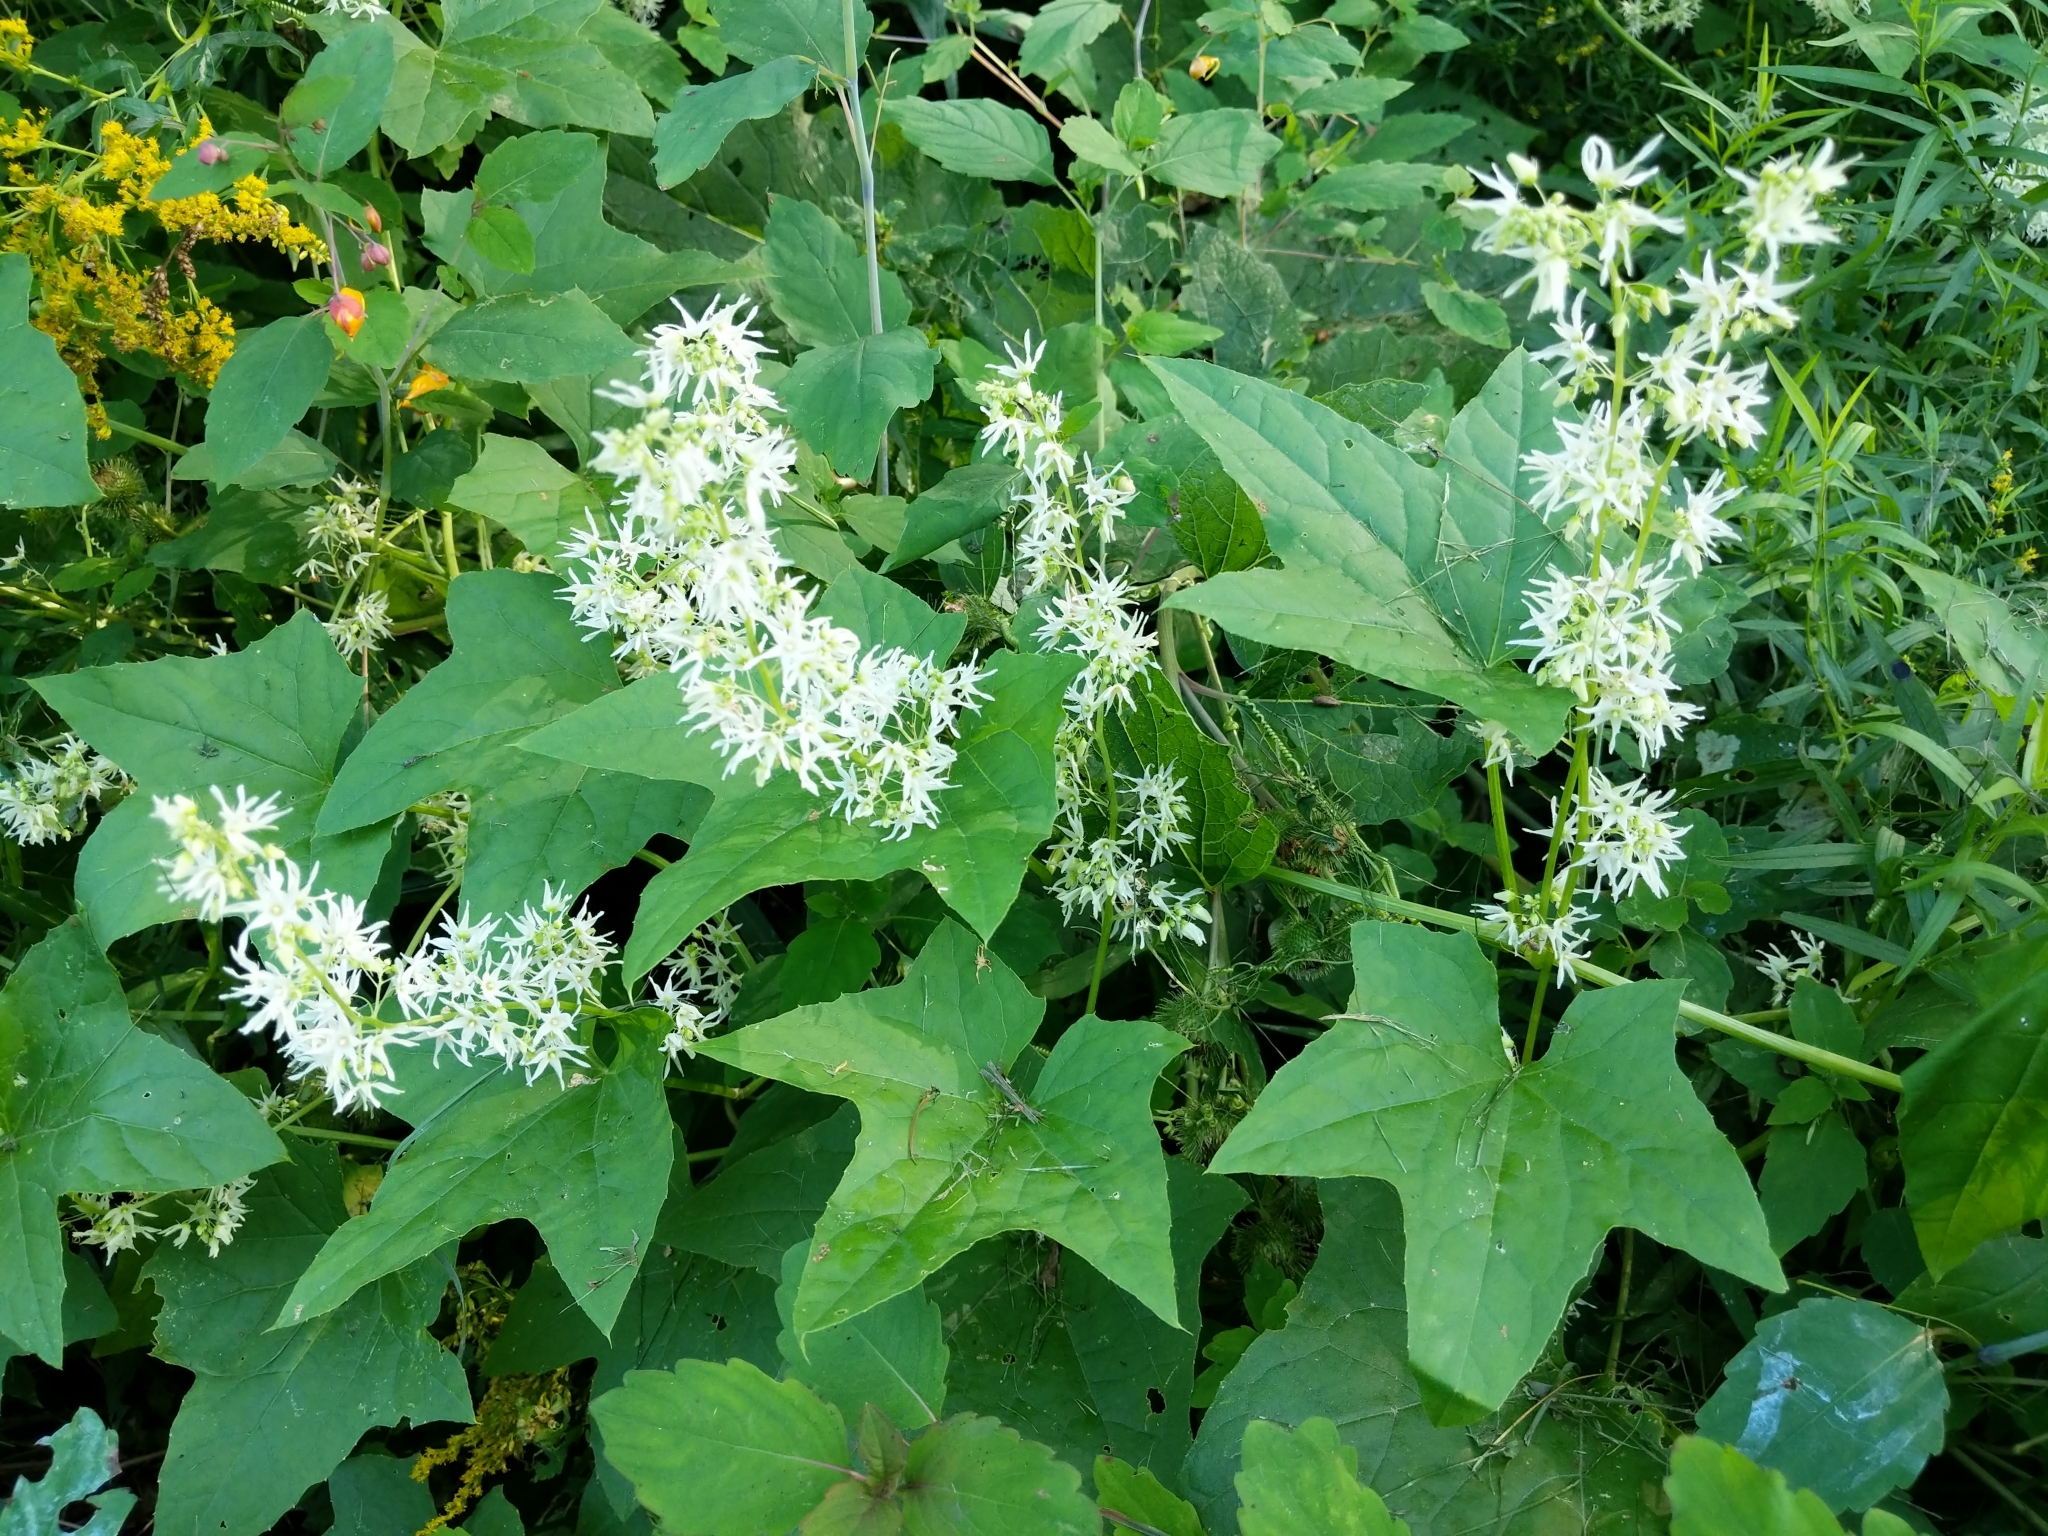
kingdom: Plantae
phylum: Tracheophyta
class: Magnoliopsida
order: Cucurbitales
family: Cucurbitaceae
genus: Echinocystis
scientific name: Echinocystis lobata
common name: Wild cucumber
